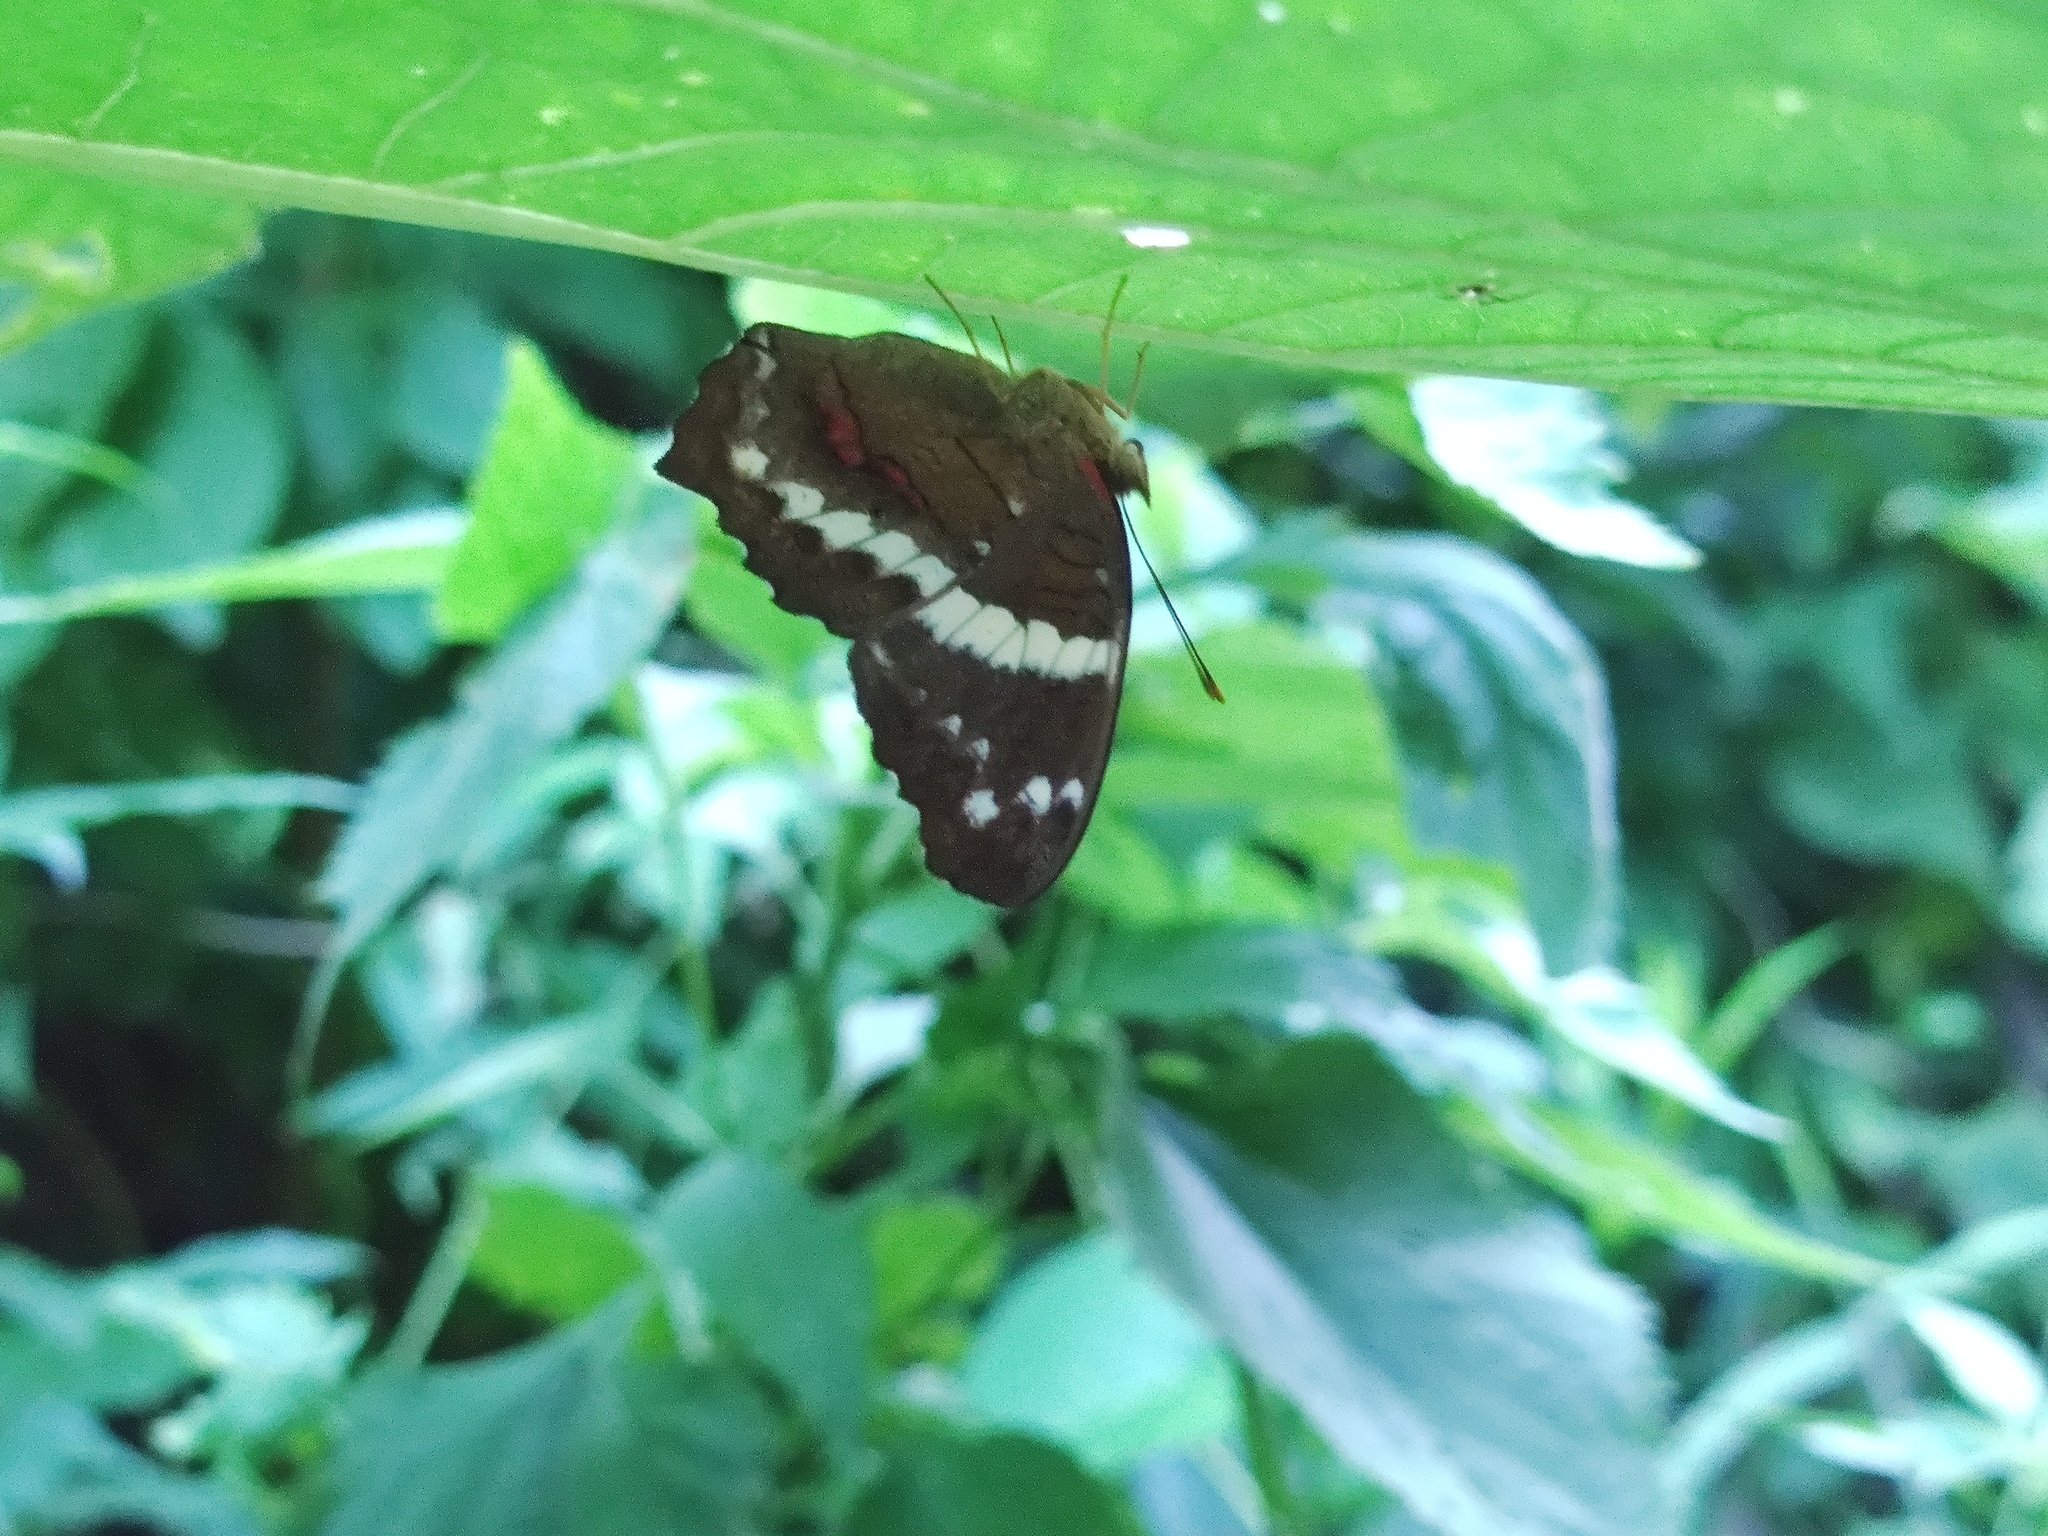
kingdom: Animalia
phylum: Arthropoda
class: Insecta
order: Lepidoptera
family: Nymphalidae
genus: Anartia
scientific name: Anartia fatima
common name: Banded peacock
